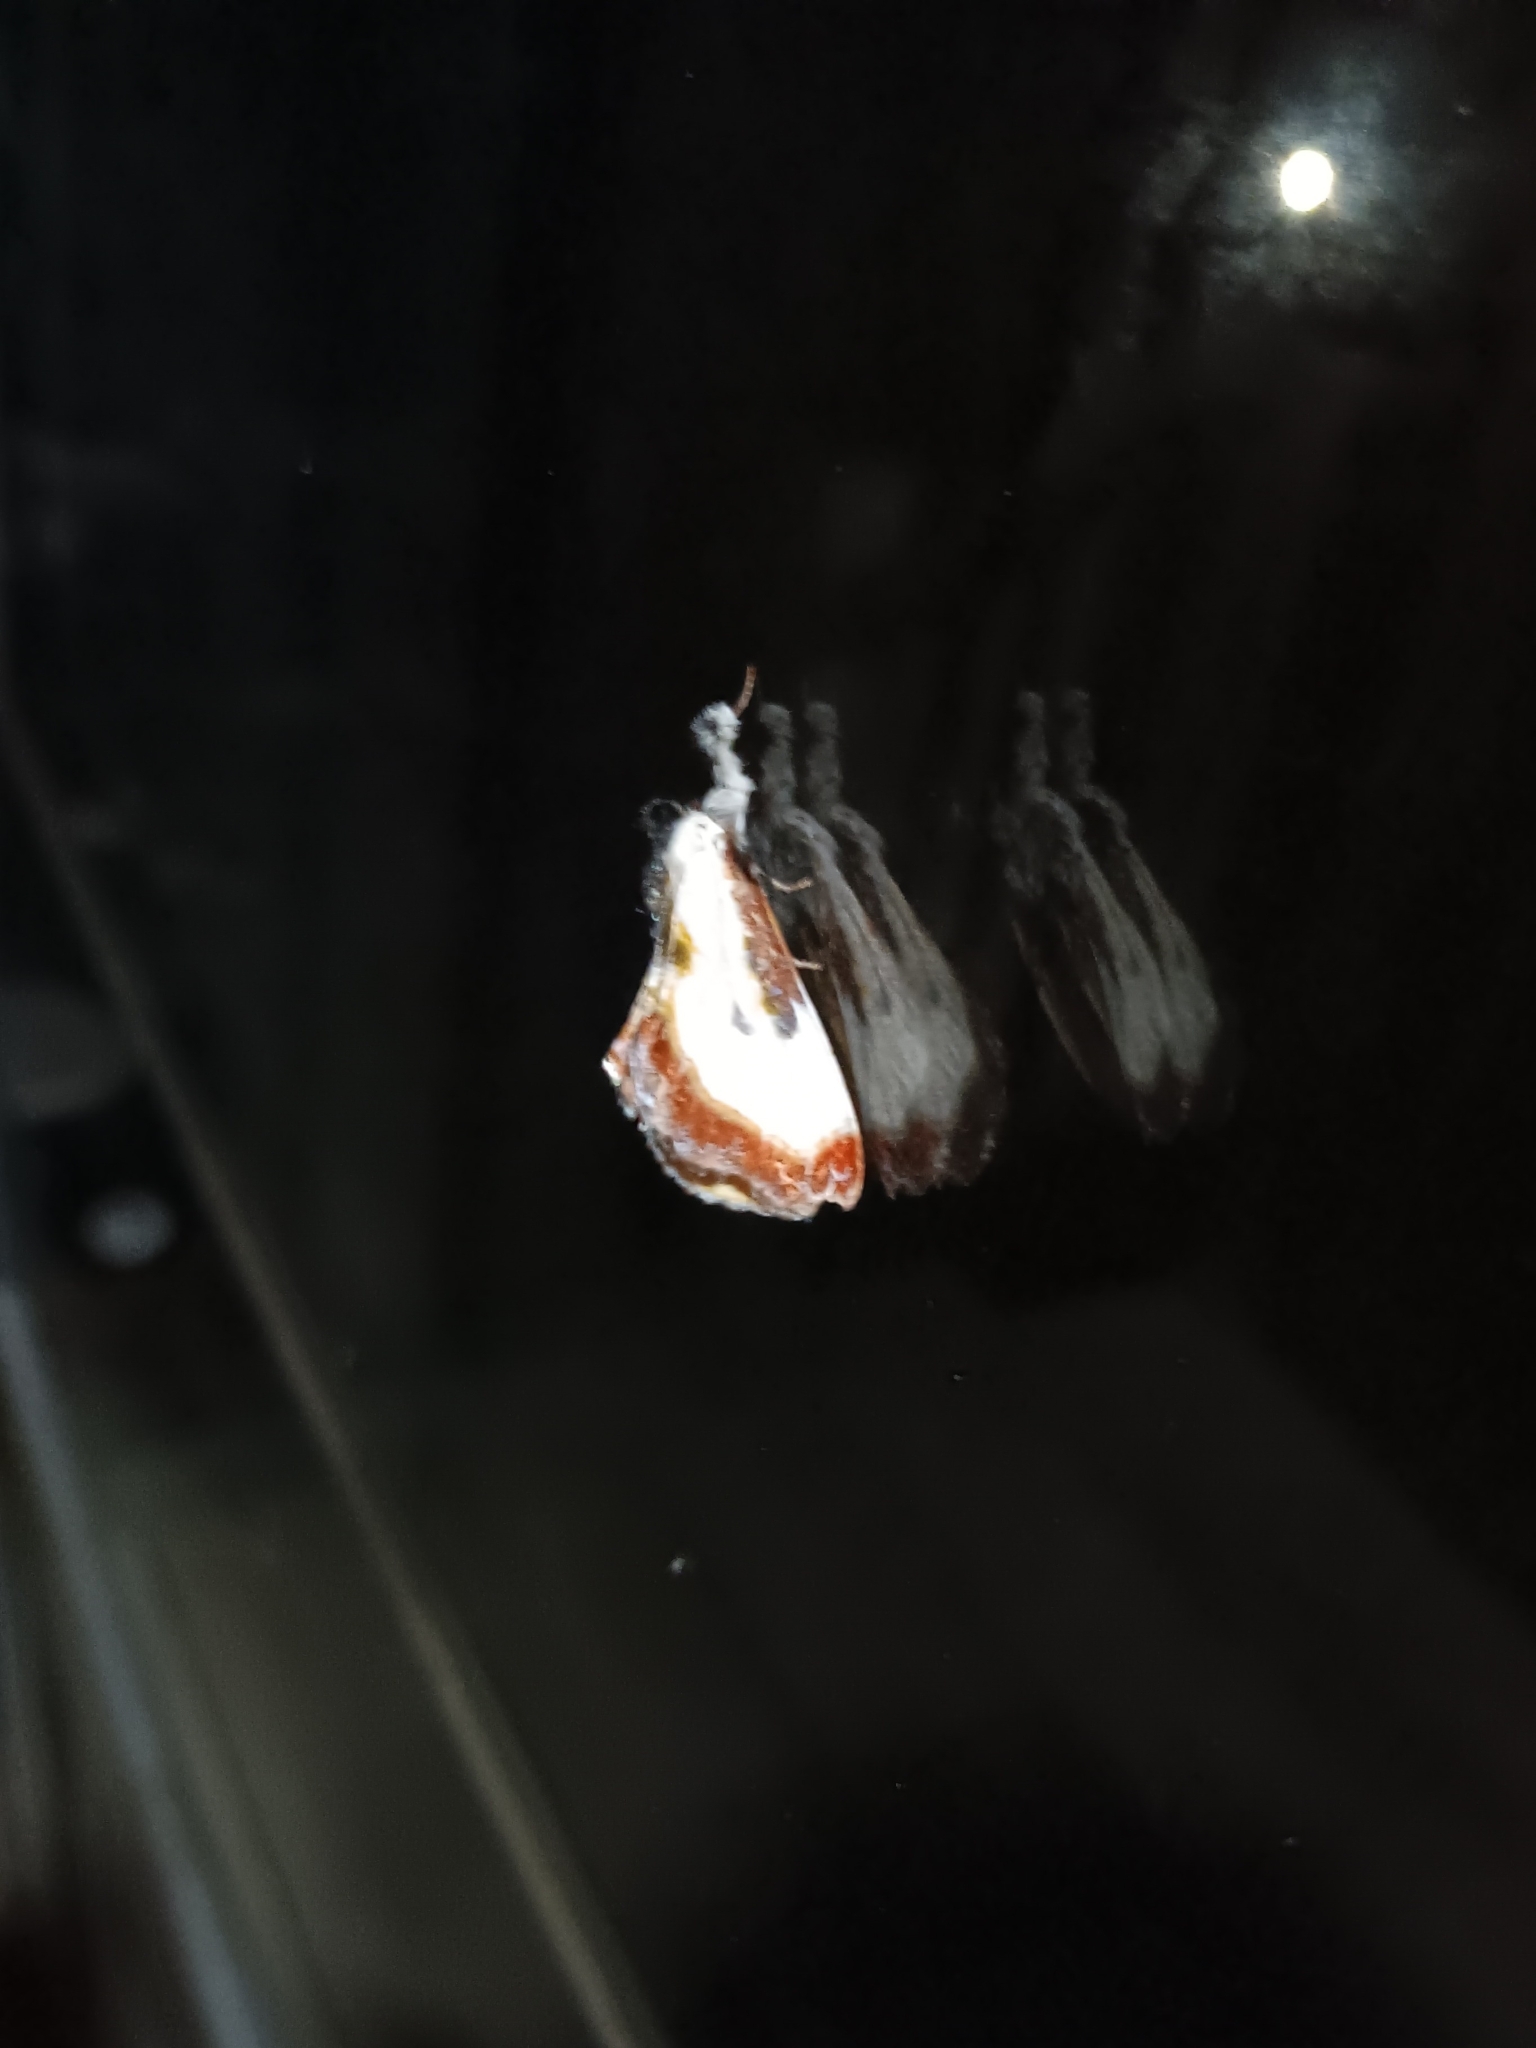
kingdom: Animalia
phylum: Arthropoda
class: Insecta
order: Lepidoptera
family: Noctuidae
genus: Eudryas
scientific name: Eudryas grata
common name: Beautiful wood-nymph
